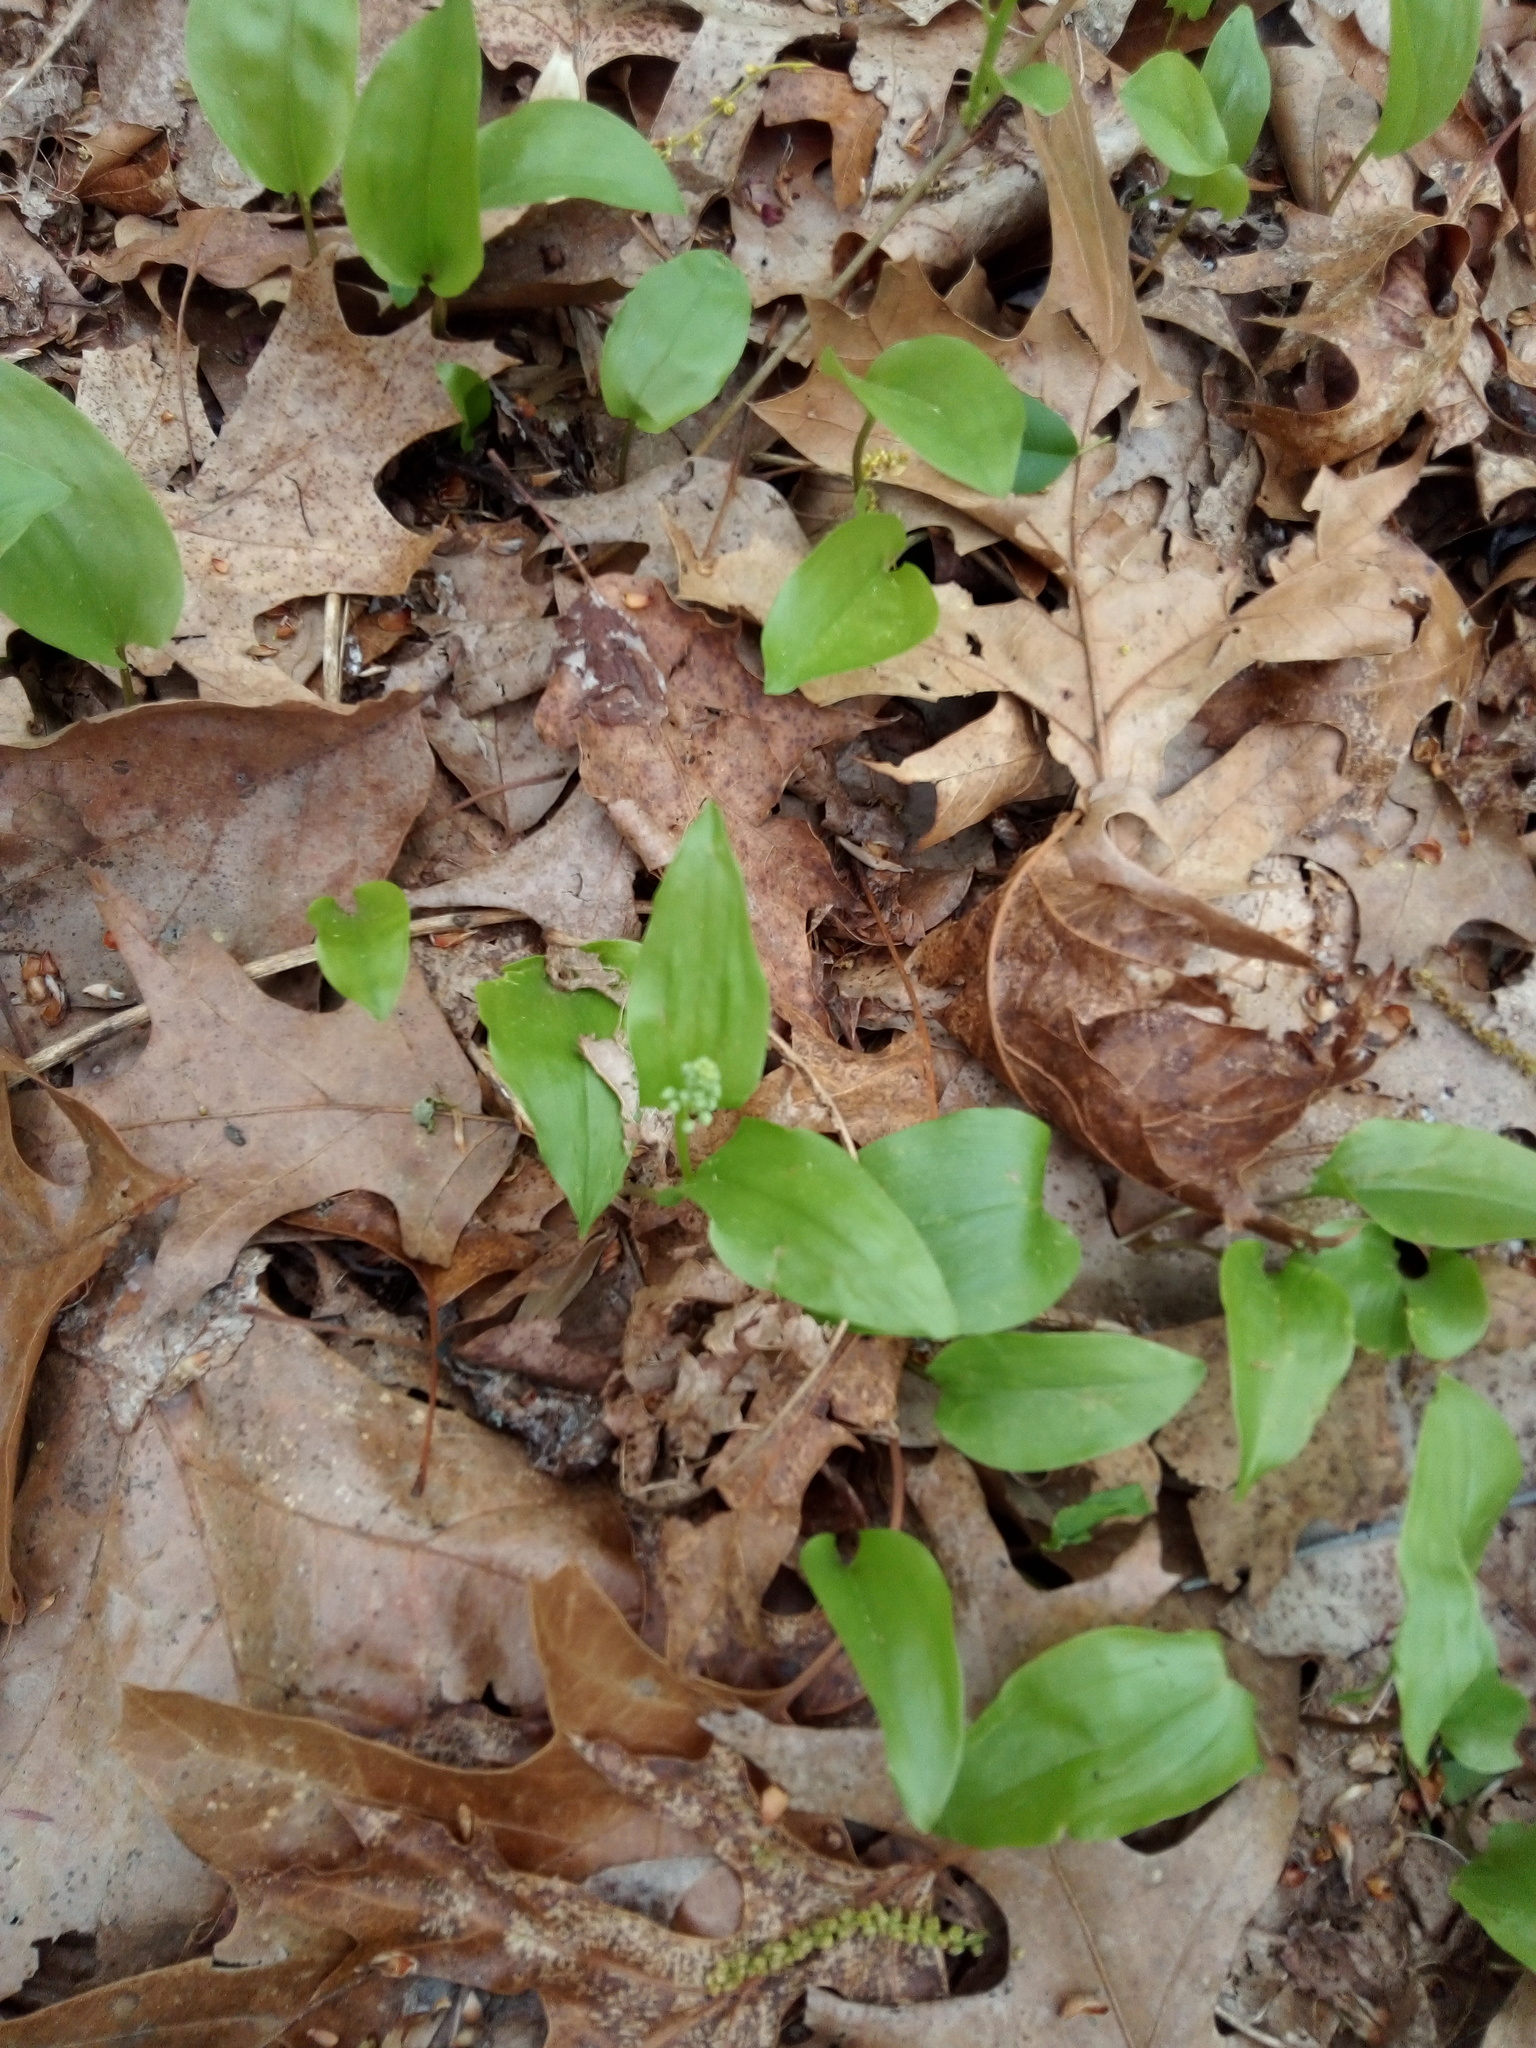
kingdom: Plantae
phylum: Tracheophyta
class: Liliopsida
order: Asparagales
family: Asparagaceae
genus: Maianthemum
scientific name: Maianthemum canadense
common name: False lily-of-the-valley
